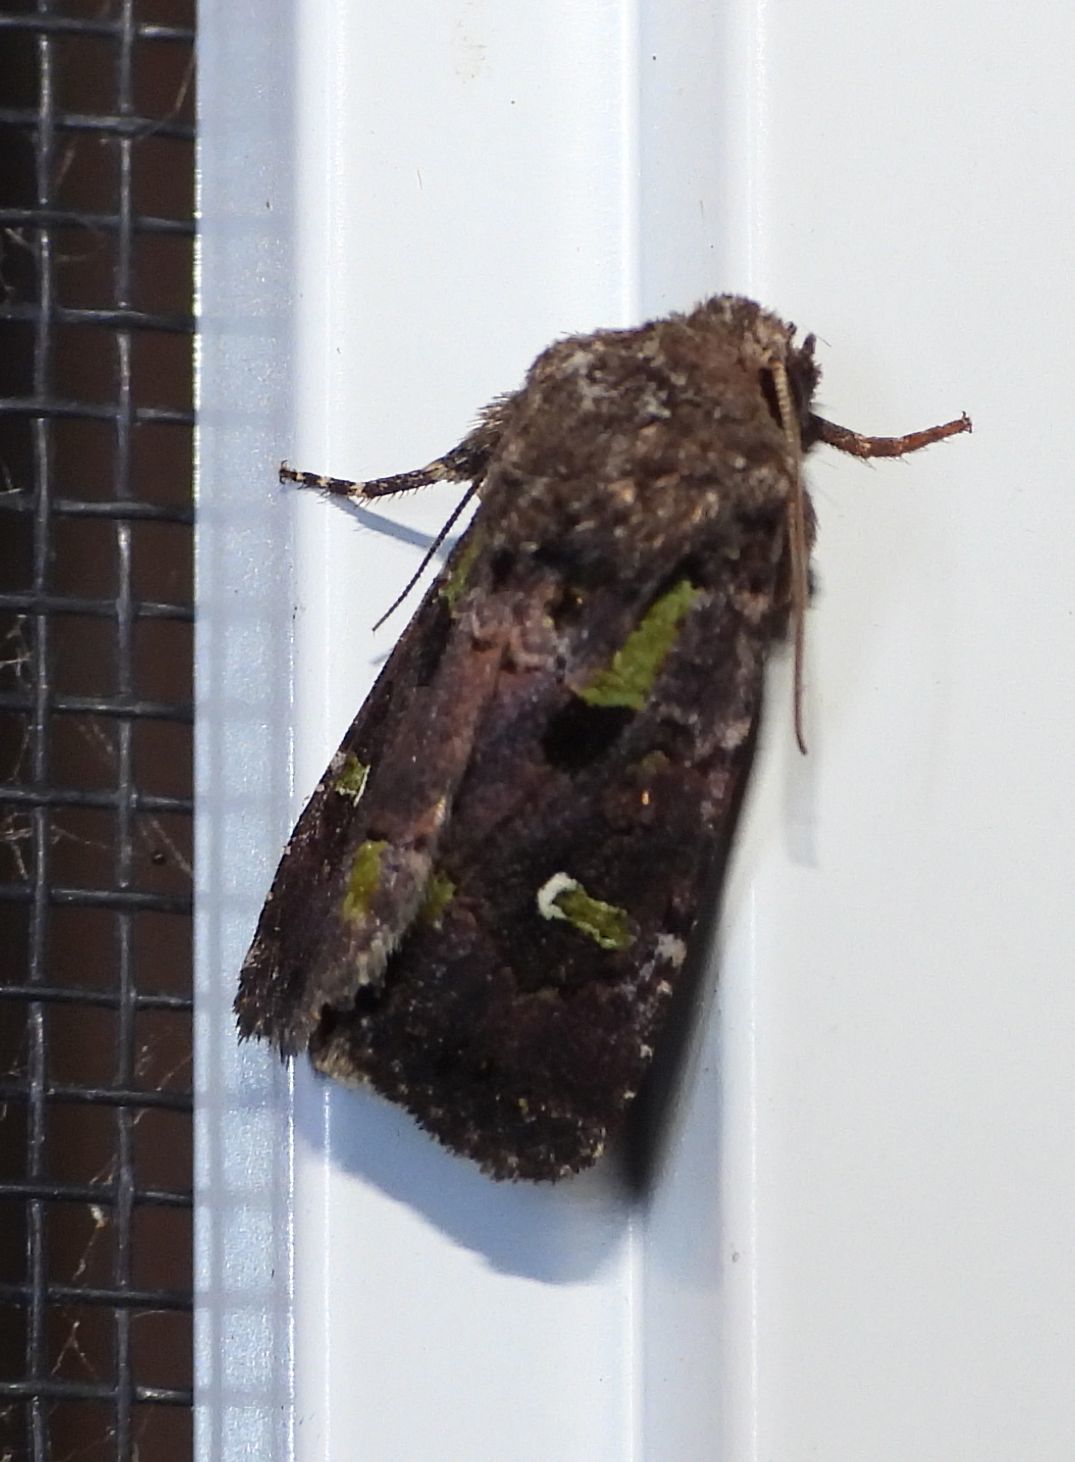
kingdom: Animalia
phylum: Arthropoda
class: Insecta
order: Lepidoptera
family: Noctuidae
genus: Lacinipolia
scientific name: Lacinipolia renigera
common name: Kidney-spotted minor
